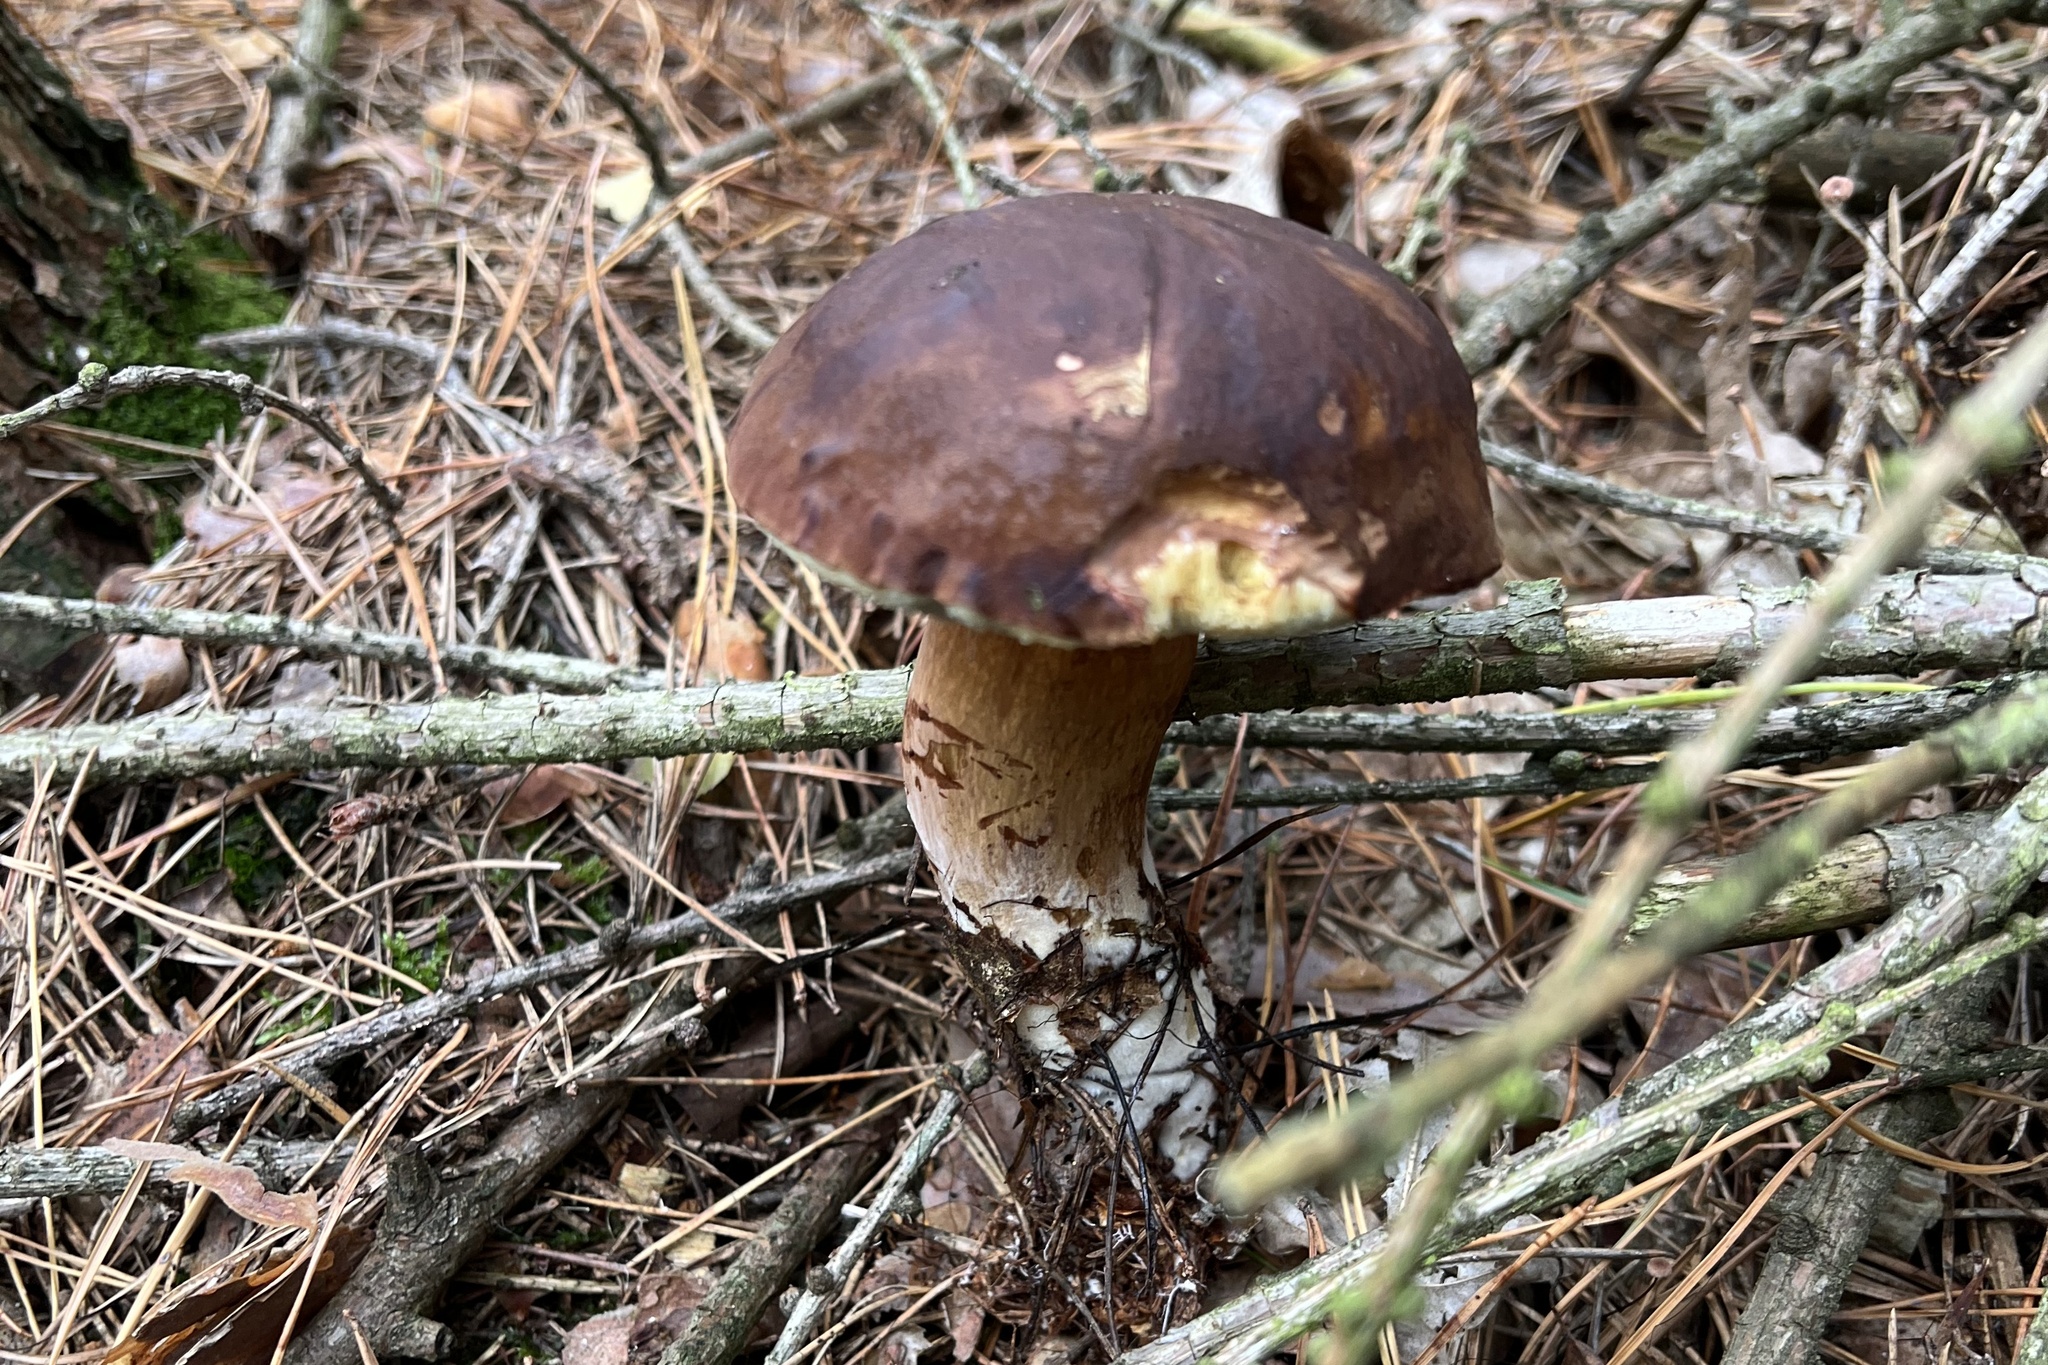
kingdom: Fungi
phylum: Basidiomycota
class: Agaricomycetes
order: Boletales
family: Boletaceae
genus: Imleria
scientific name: Imleria badia
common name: Bay bolete
